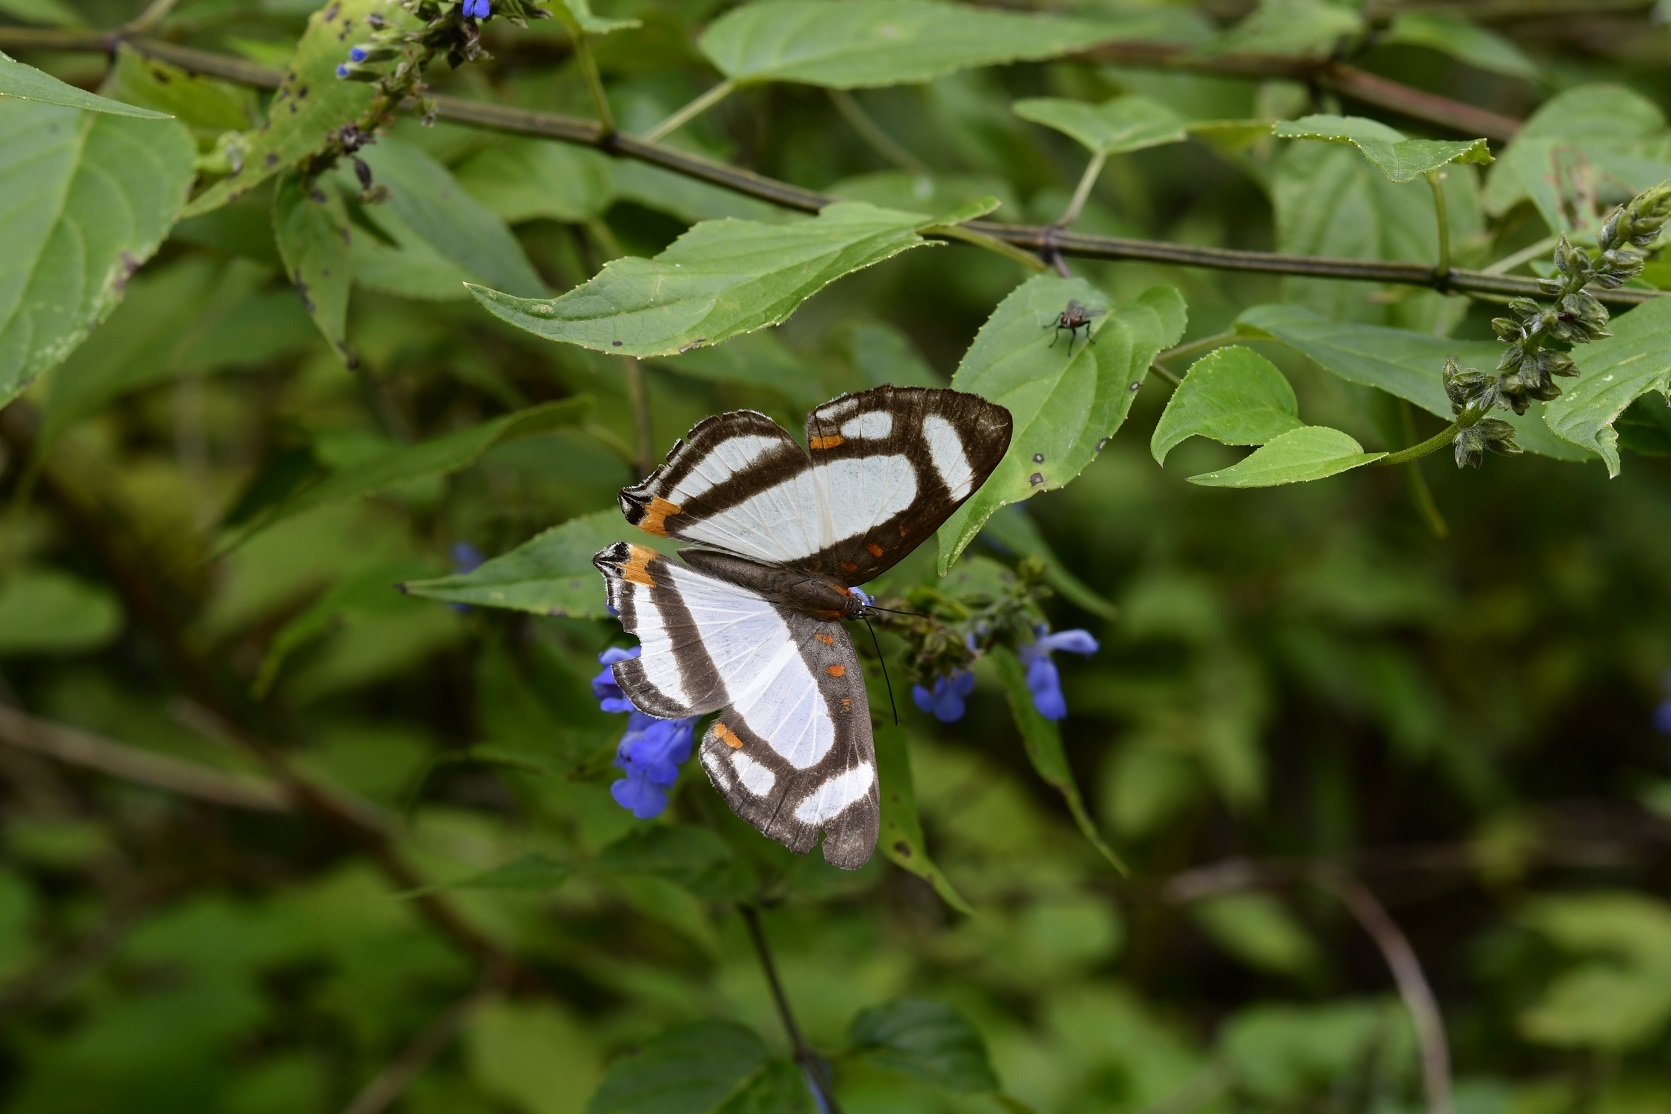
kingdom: Animalia
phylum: Arthropoda
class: Insecta
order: Lepidoptera
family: Riodinidae
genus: Thisbe
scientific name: Thisbe lycorias
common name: Banner metalmark
